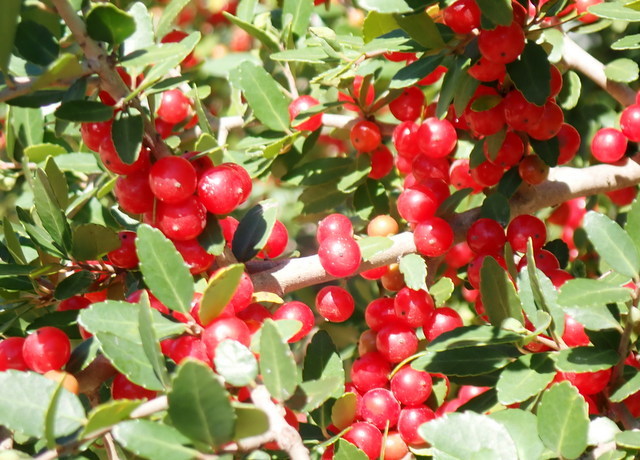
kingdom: Plantae
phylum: Tracheophyta
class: Magnoliopsida
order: Aquifoliales
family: Aquifoliaceae
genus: Ilex
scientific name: Ilex vomitoria
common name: Yaupon holly
